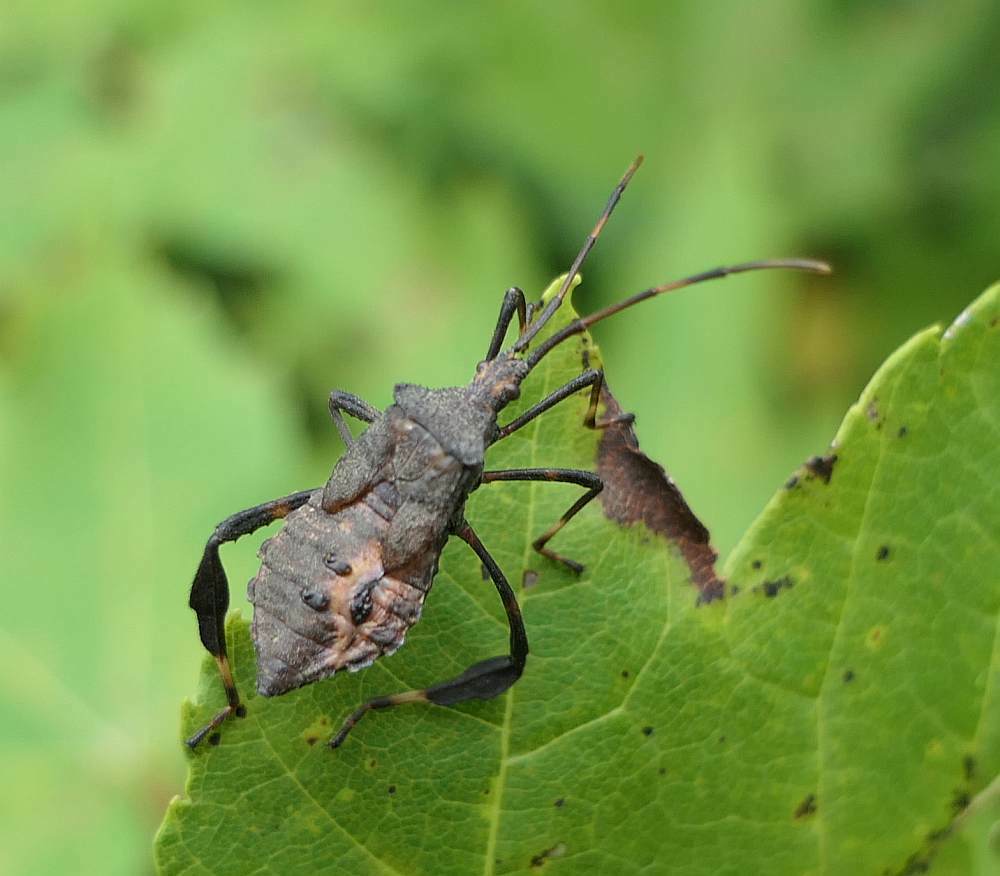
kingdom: Animalia
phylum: Arthropoda
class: Insecta
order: Hemiptera
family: Coreidae
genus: Acanthocephala
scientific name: Acanthocephala terminalis
